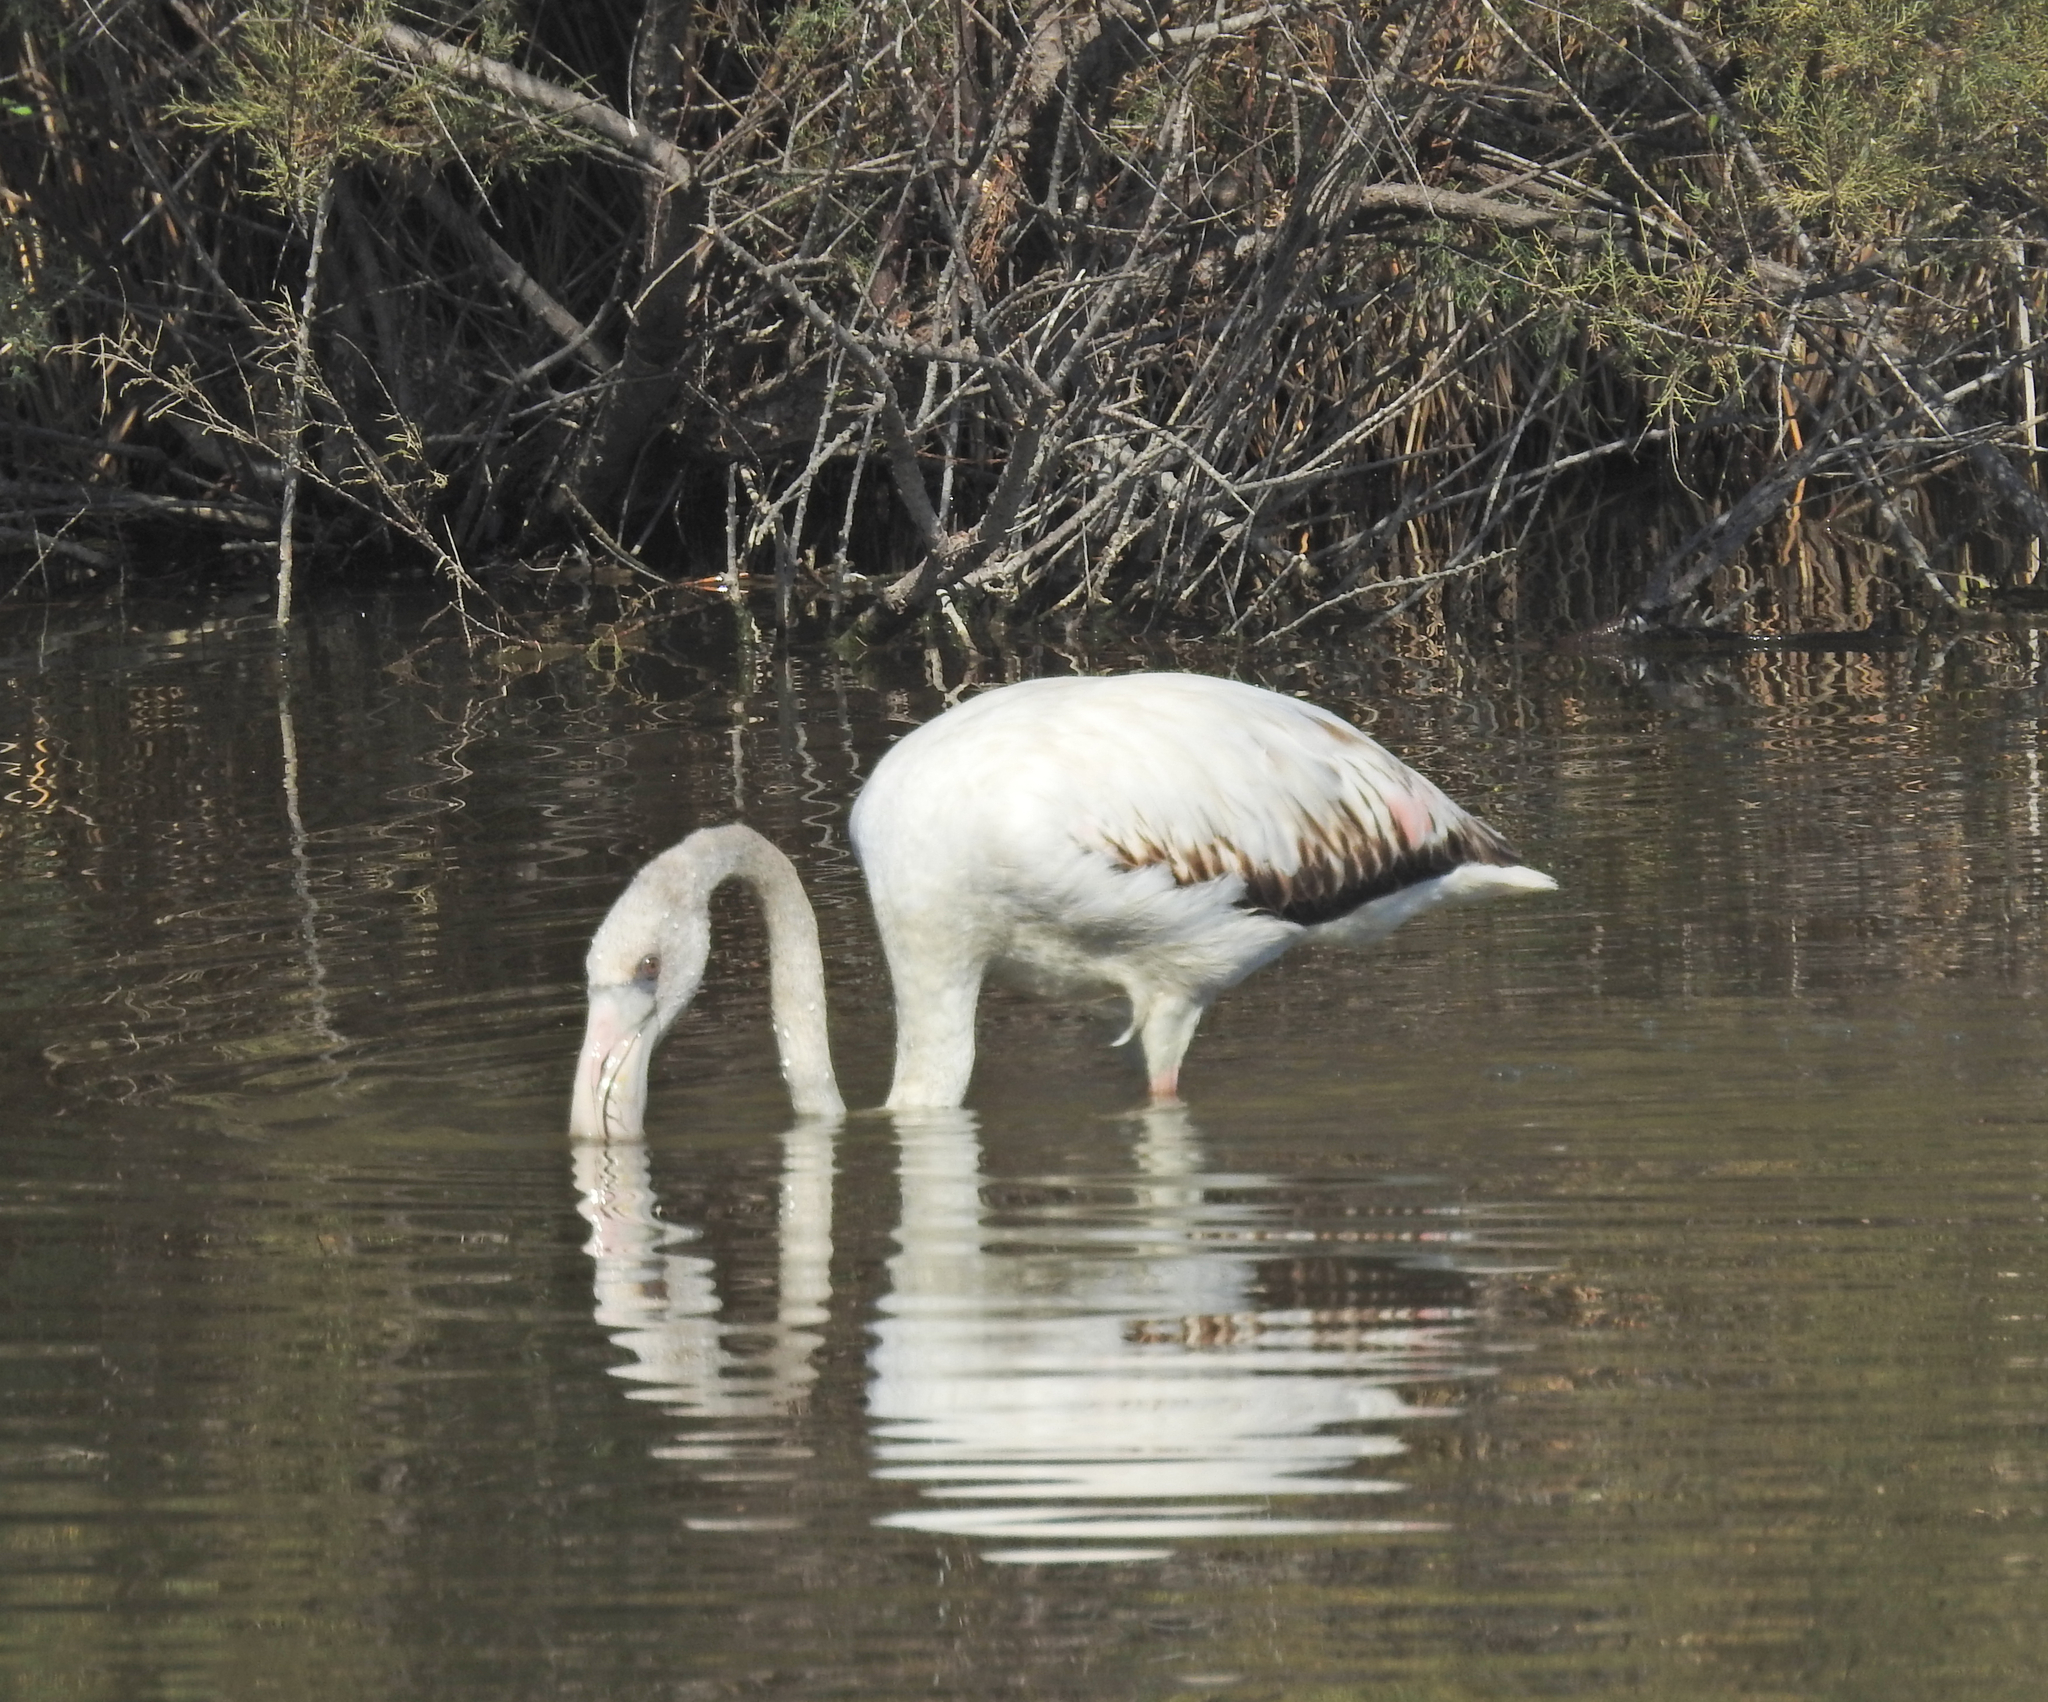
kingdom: Animalia
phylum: Chordata
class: Aves
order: Phoenicopteriformes
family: Phoenicopteridae
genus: Phoenicopterus
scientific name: Phoenicopterus roseus
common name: Greater flamingo
